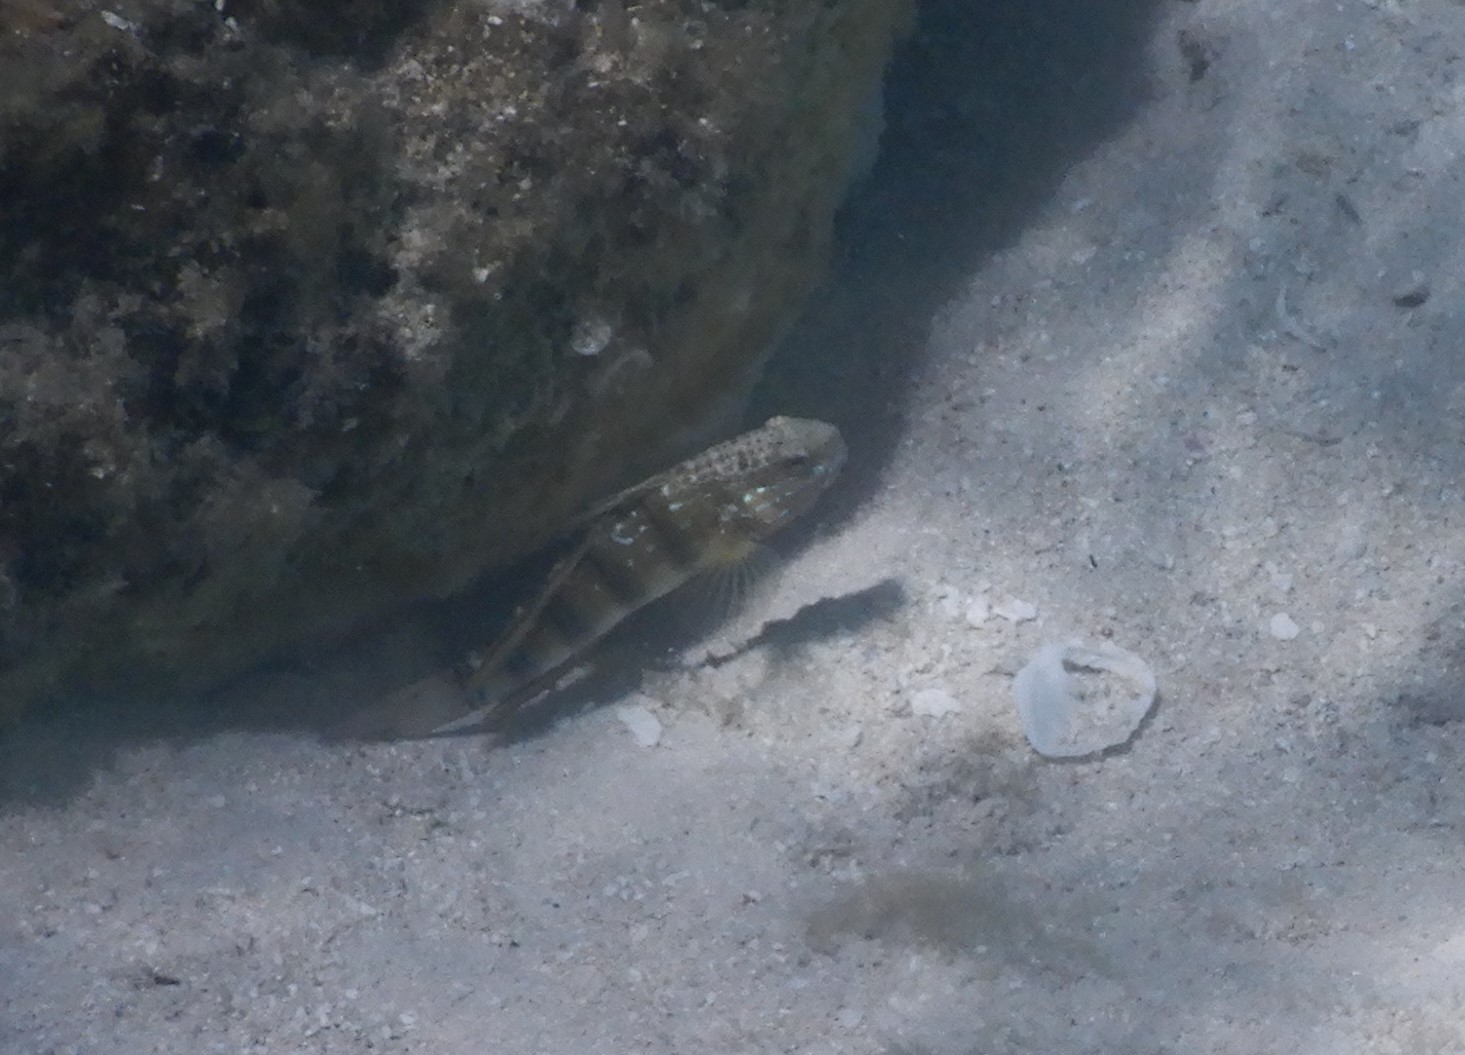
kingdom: Animalia
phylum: Chordata
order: Perciformes
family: Gobiidae
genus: Amblygobius
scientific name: Amblygobius phalaena
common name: Banded goby
